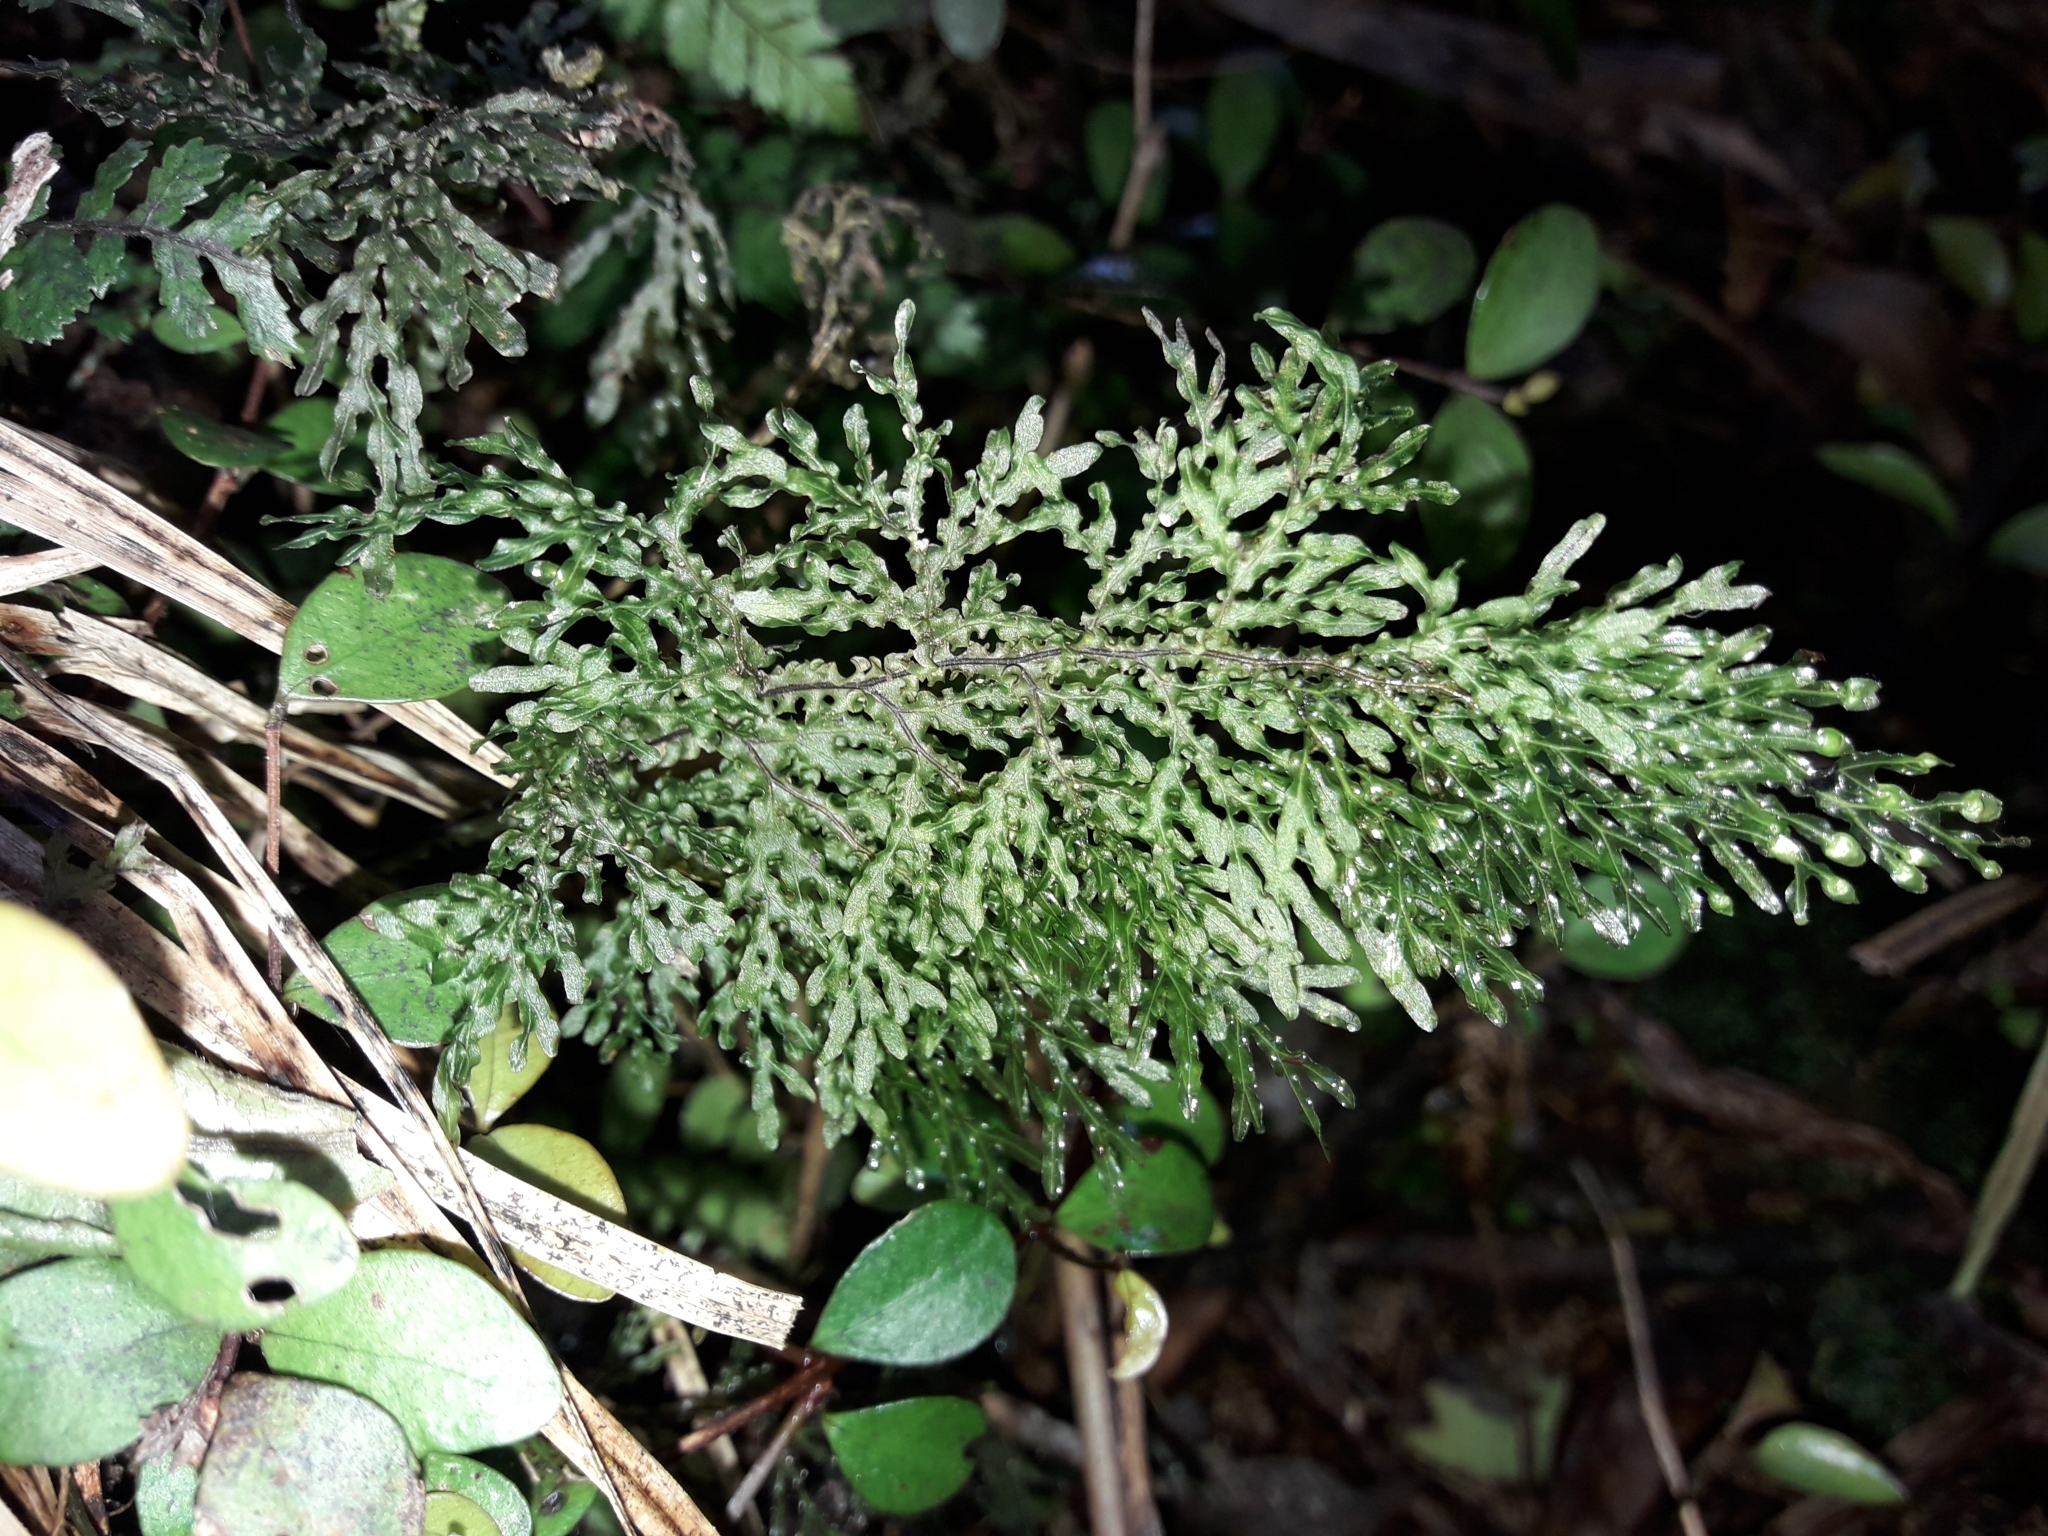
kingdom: Plantae
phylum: Tracheophyta
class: Polypodiopsida
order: Hymenophyllales
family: Hymenophyllaceae
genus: Hymenophyllum
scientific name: Hymenophyllum flexuosum
